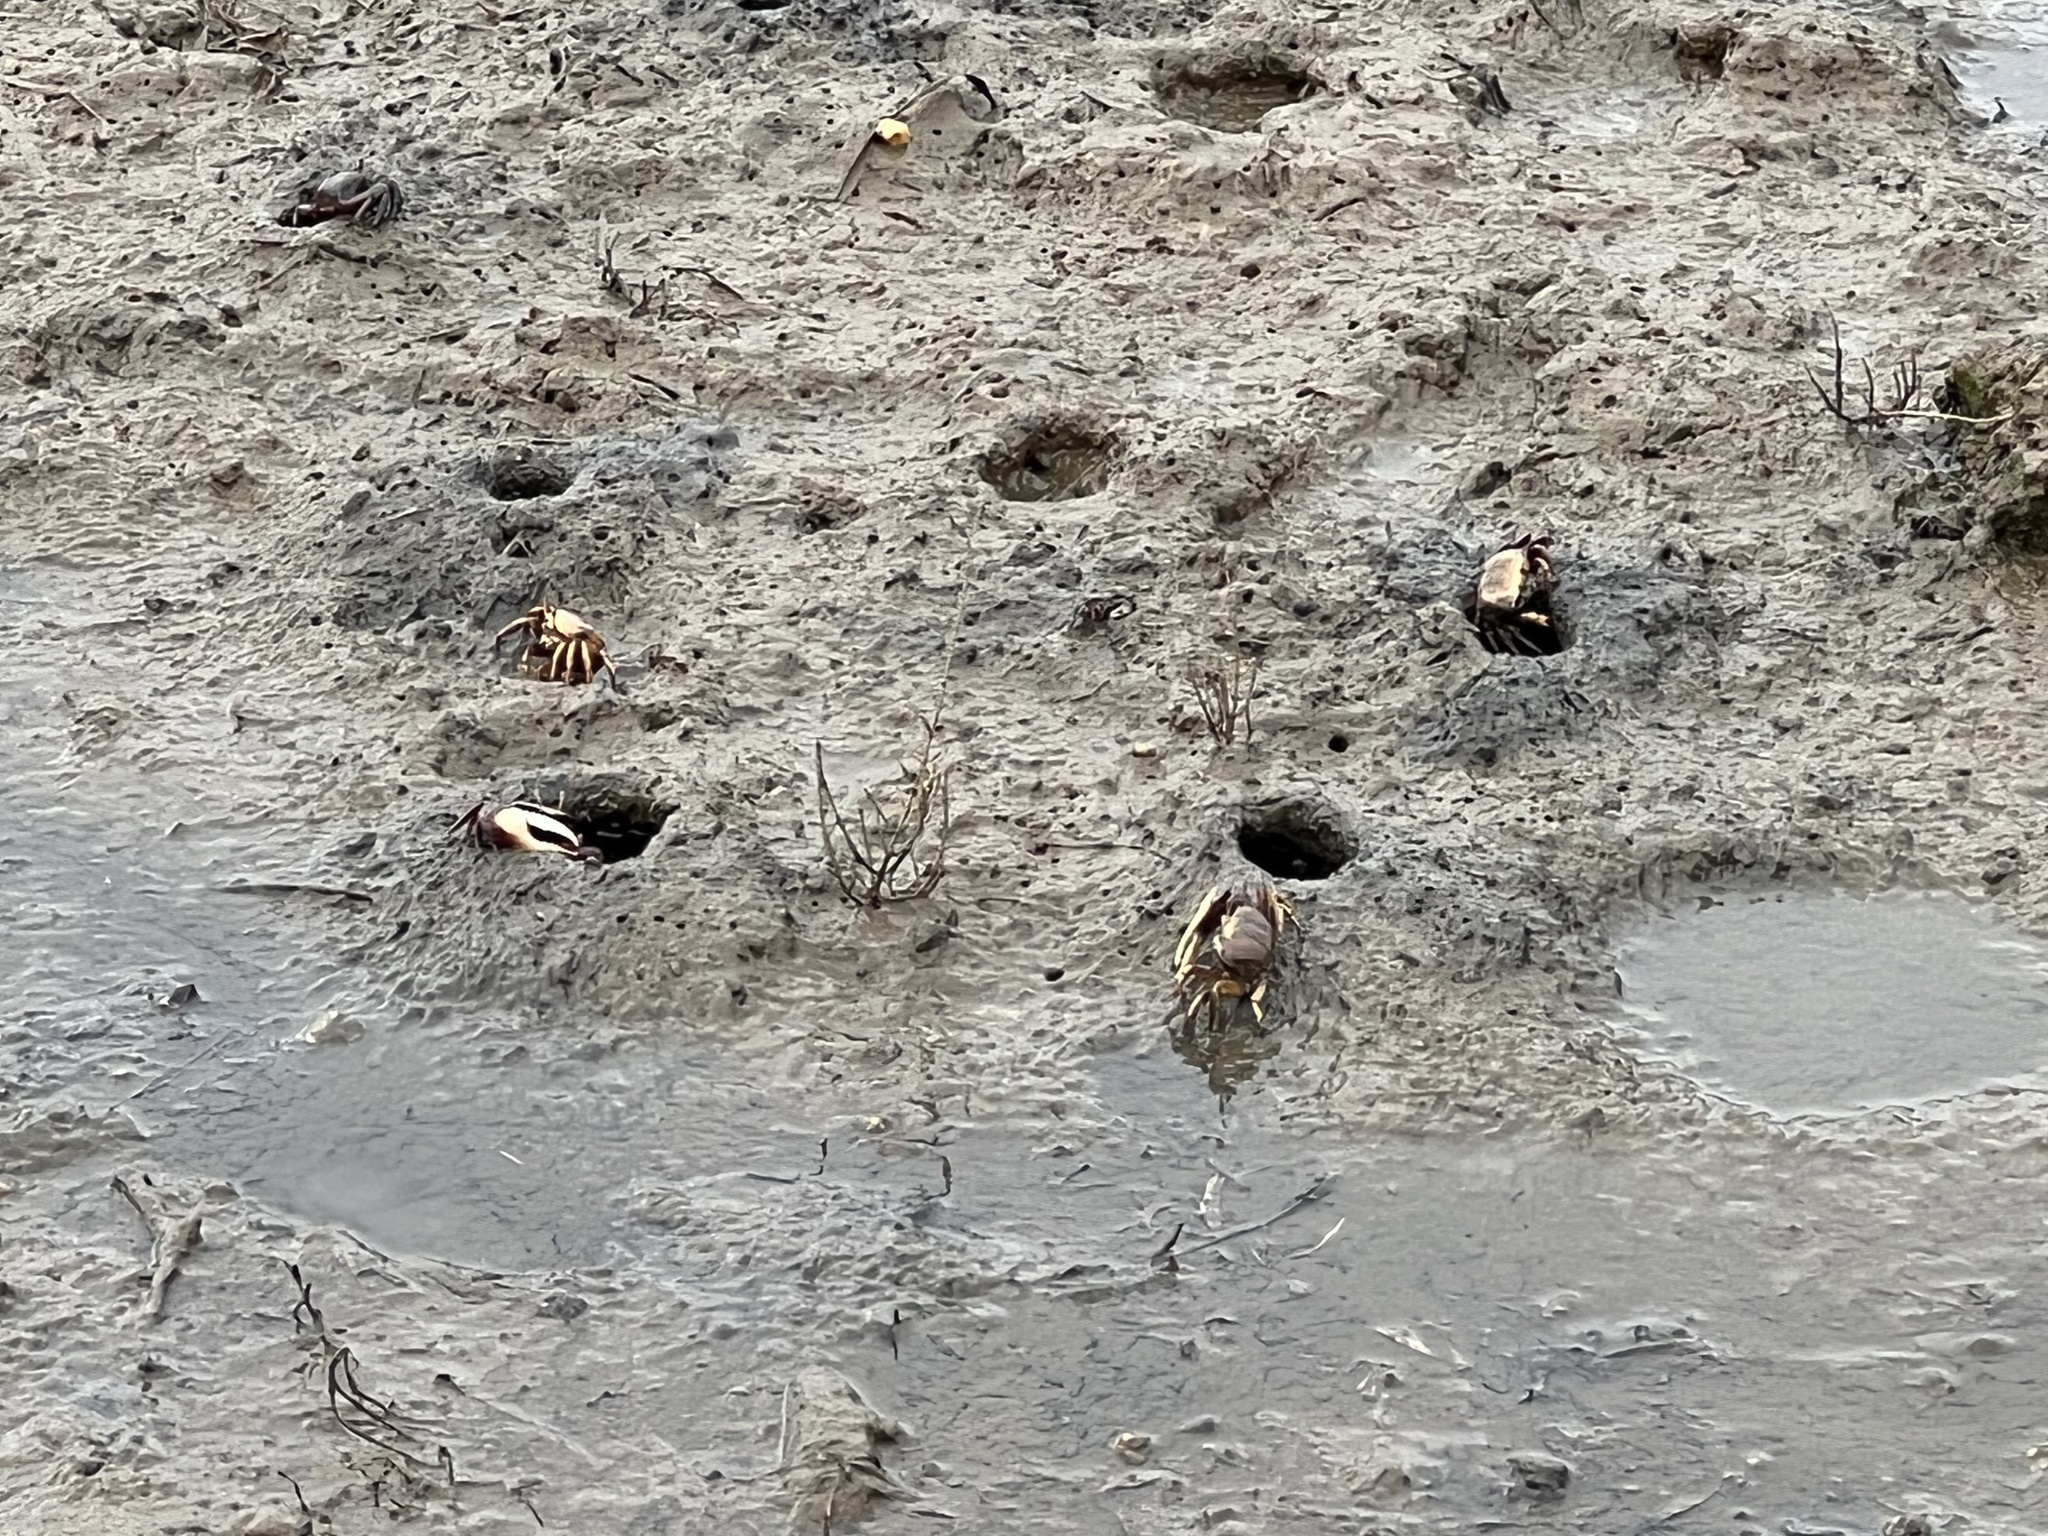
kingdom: Animalia
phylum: Arthropoda
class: Malacostraca
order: Decapoda
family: Ocypodidae
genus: Afruca
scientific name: Afruca tangeri
